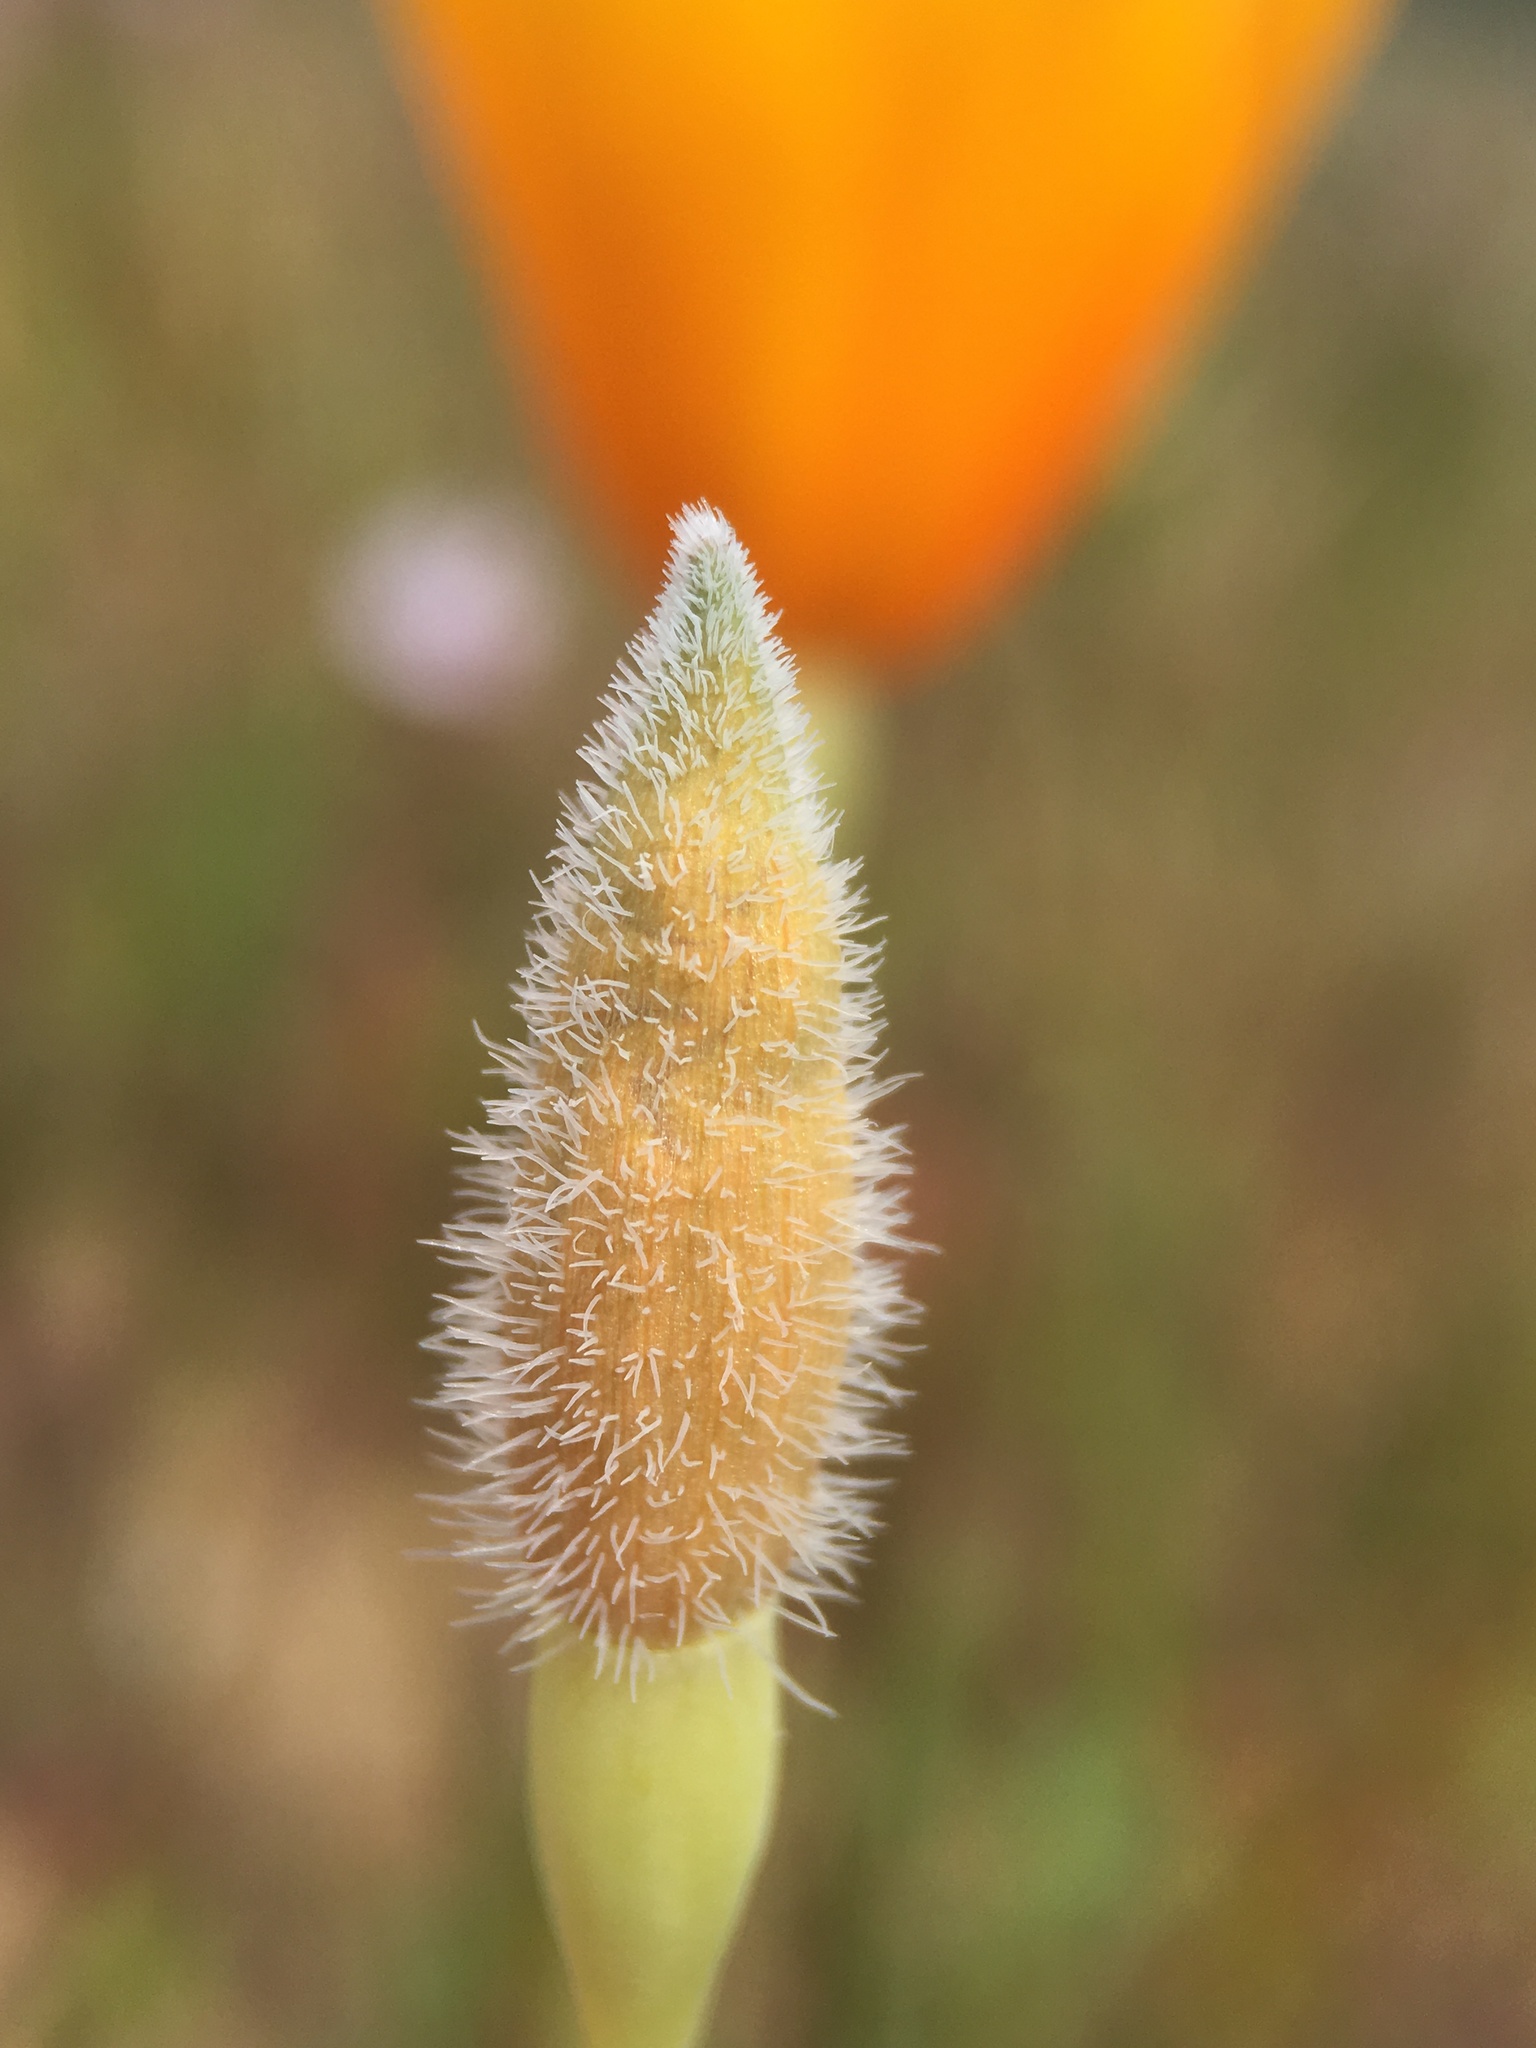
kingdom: Plantae
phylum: Tracheophyta
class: Magnoliopsida
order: Ranunculales
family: Papaveraceae
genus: Eschscholzia
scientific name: Eschscholzia hypecoides
